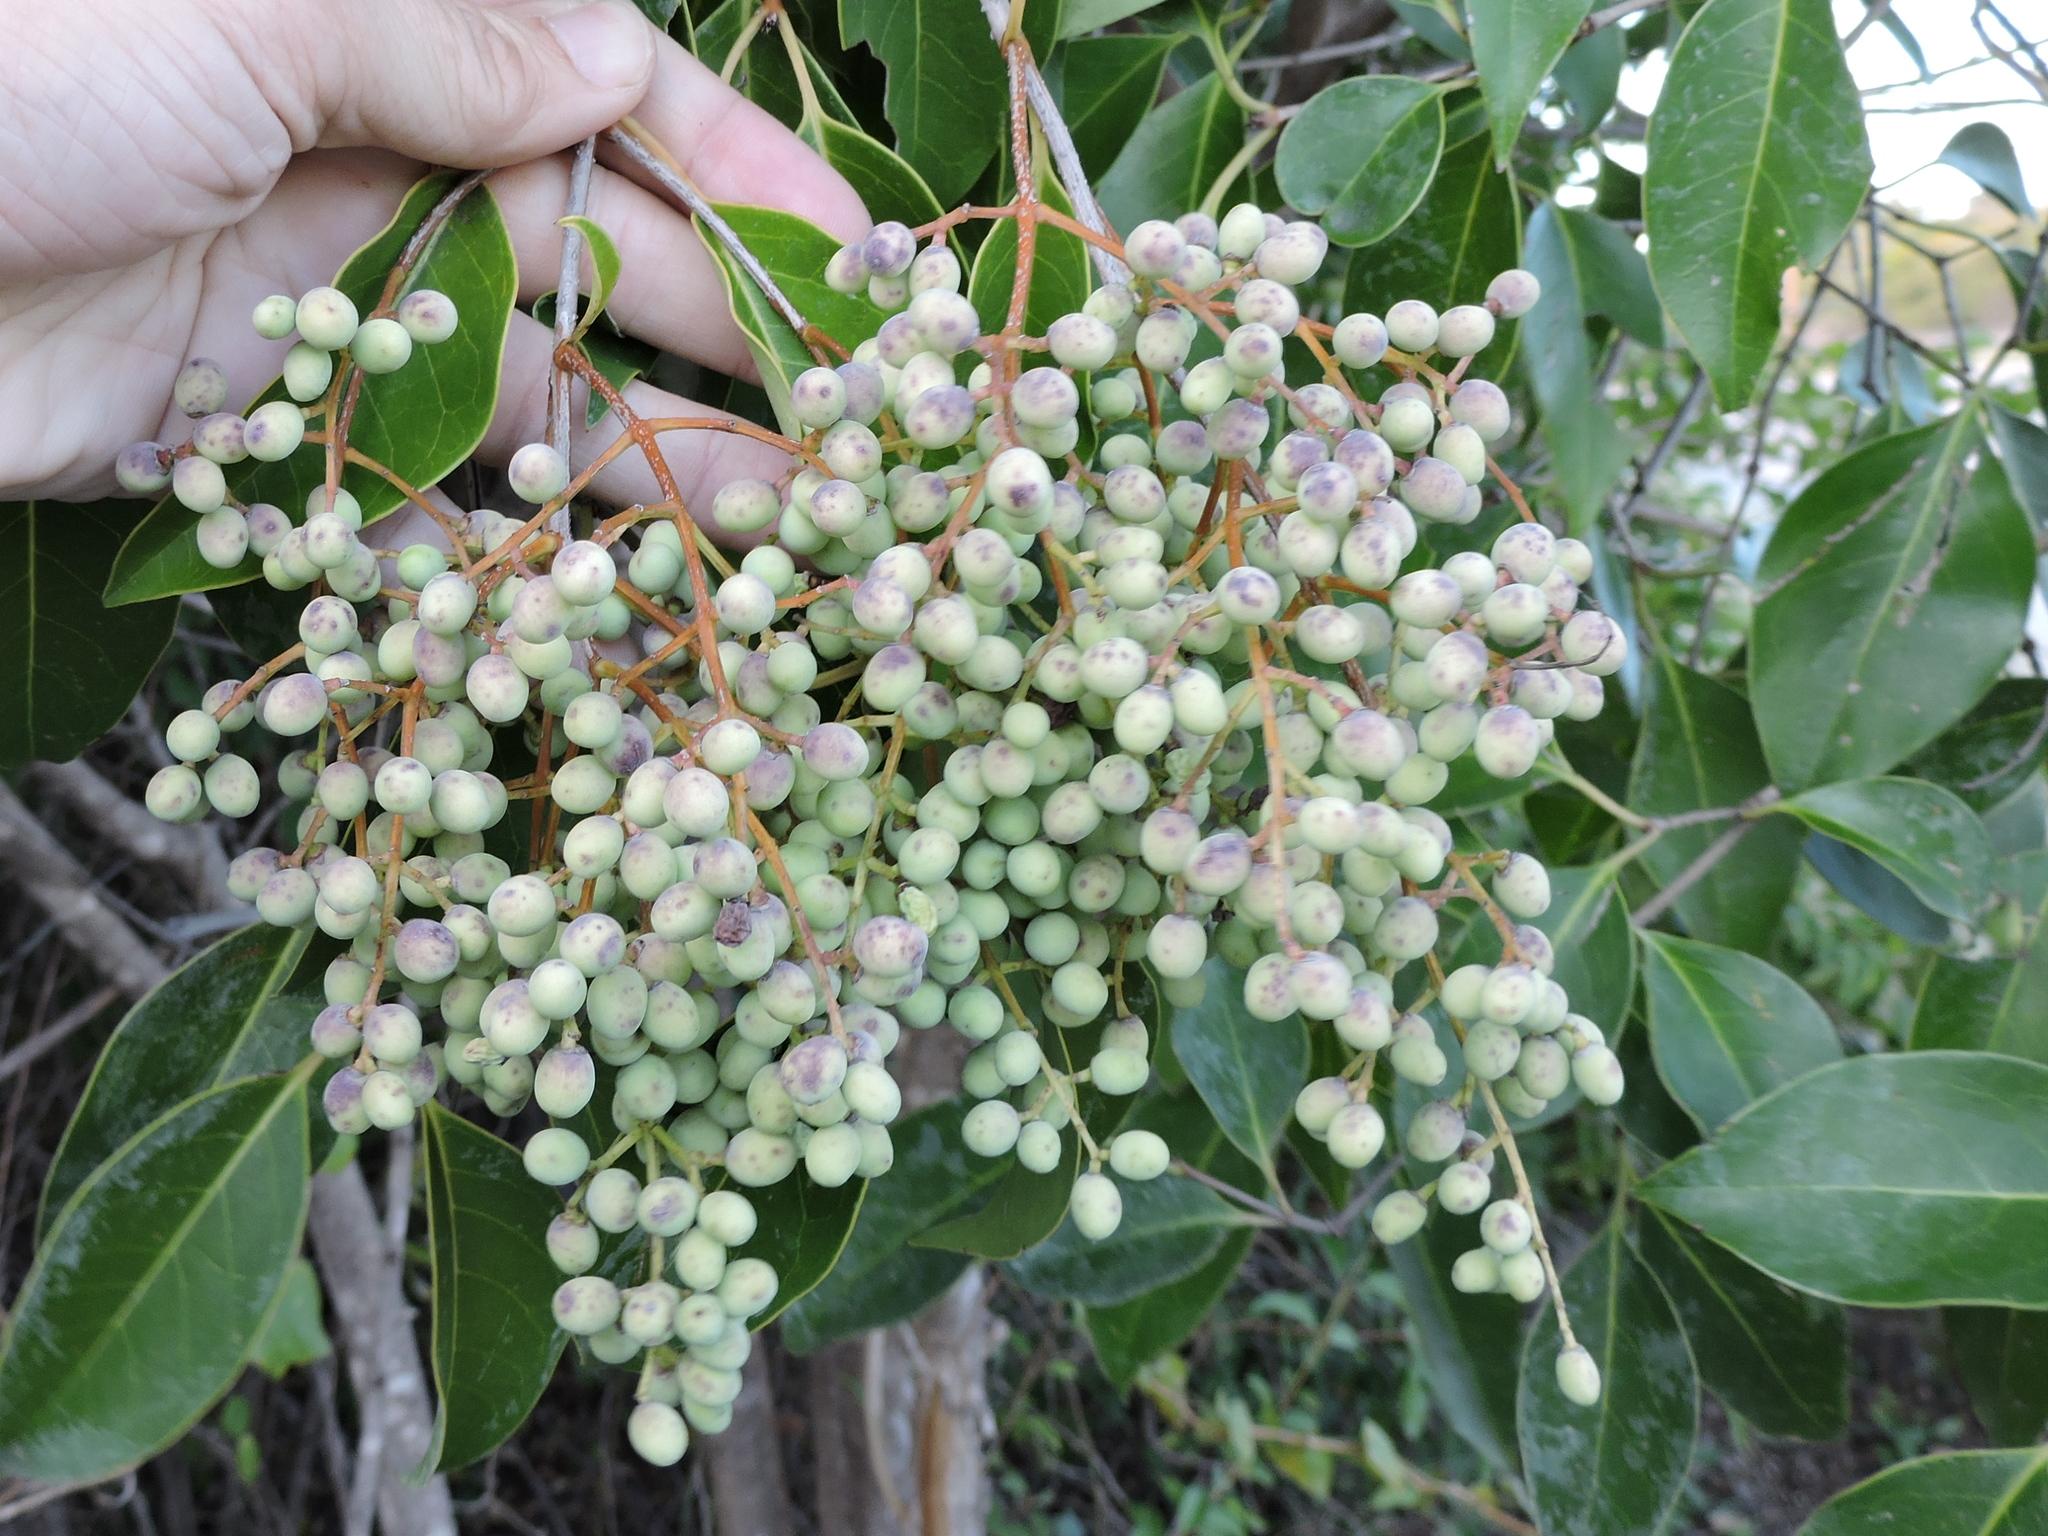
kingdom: Plantae
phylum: Tracheophyta
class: Magnoliopsida
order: Lamiales
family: Oleaceae
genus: Ligustrum
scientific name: Ligustrum lucidum
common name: Glossy privet
